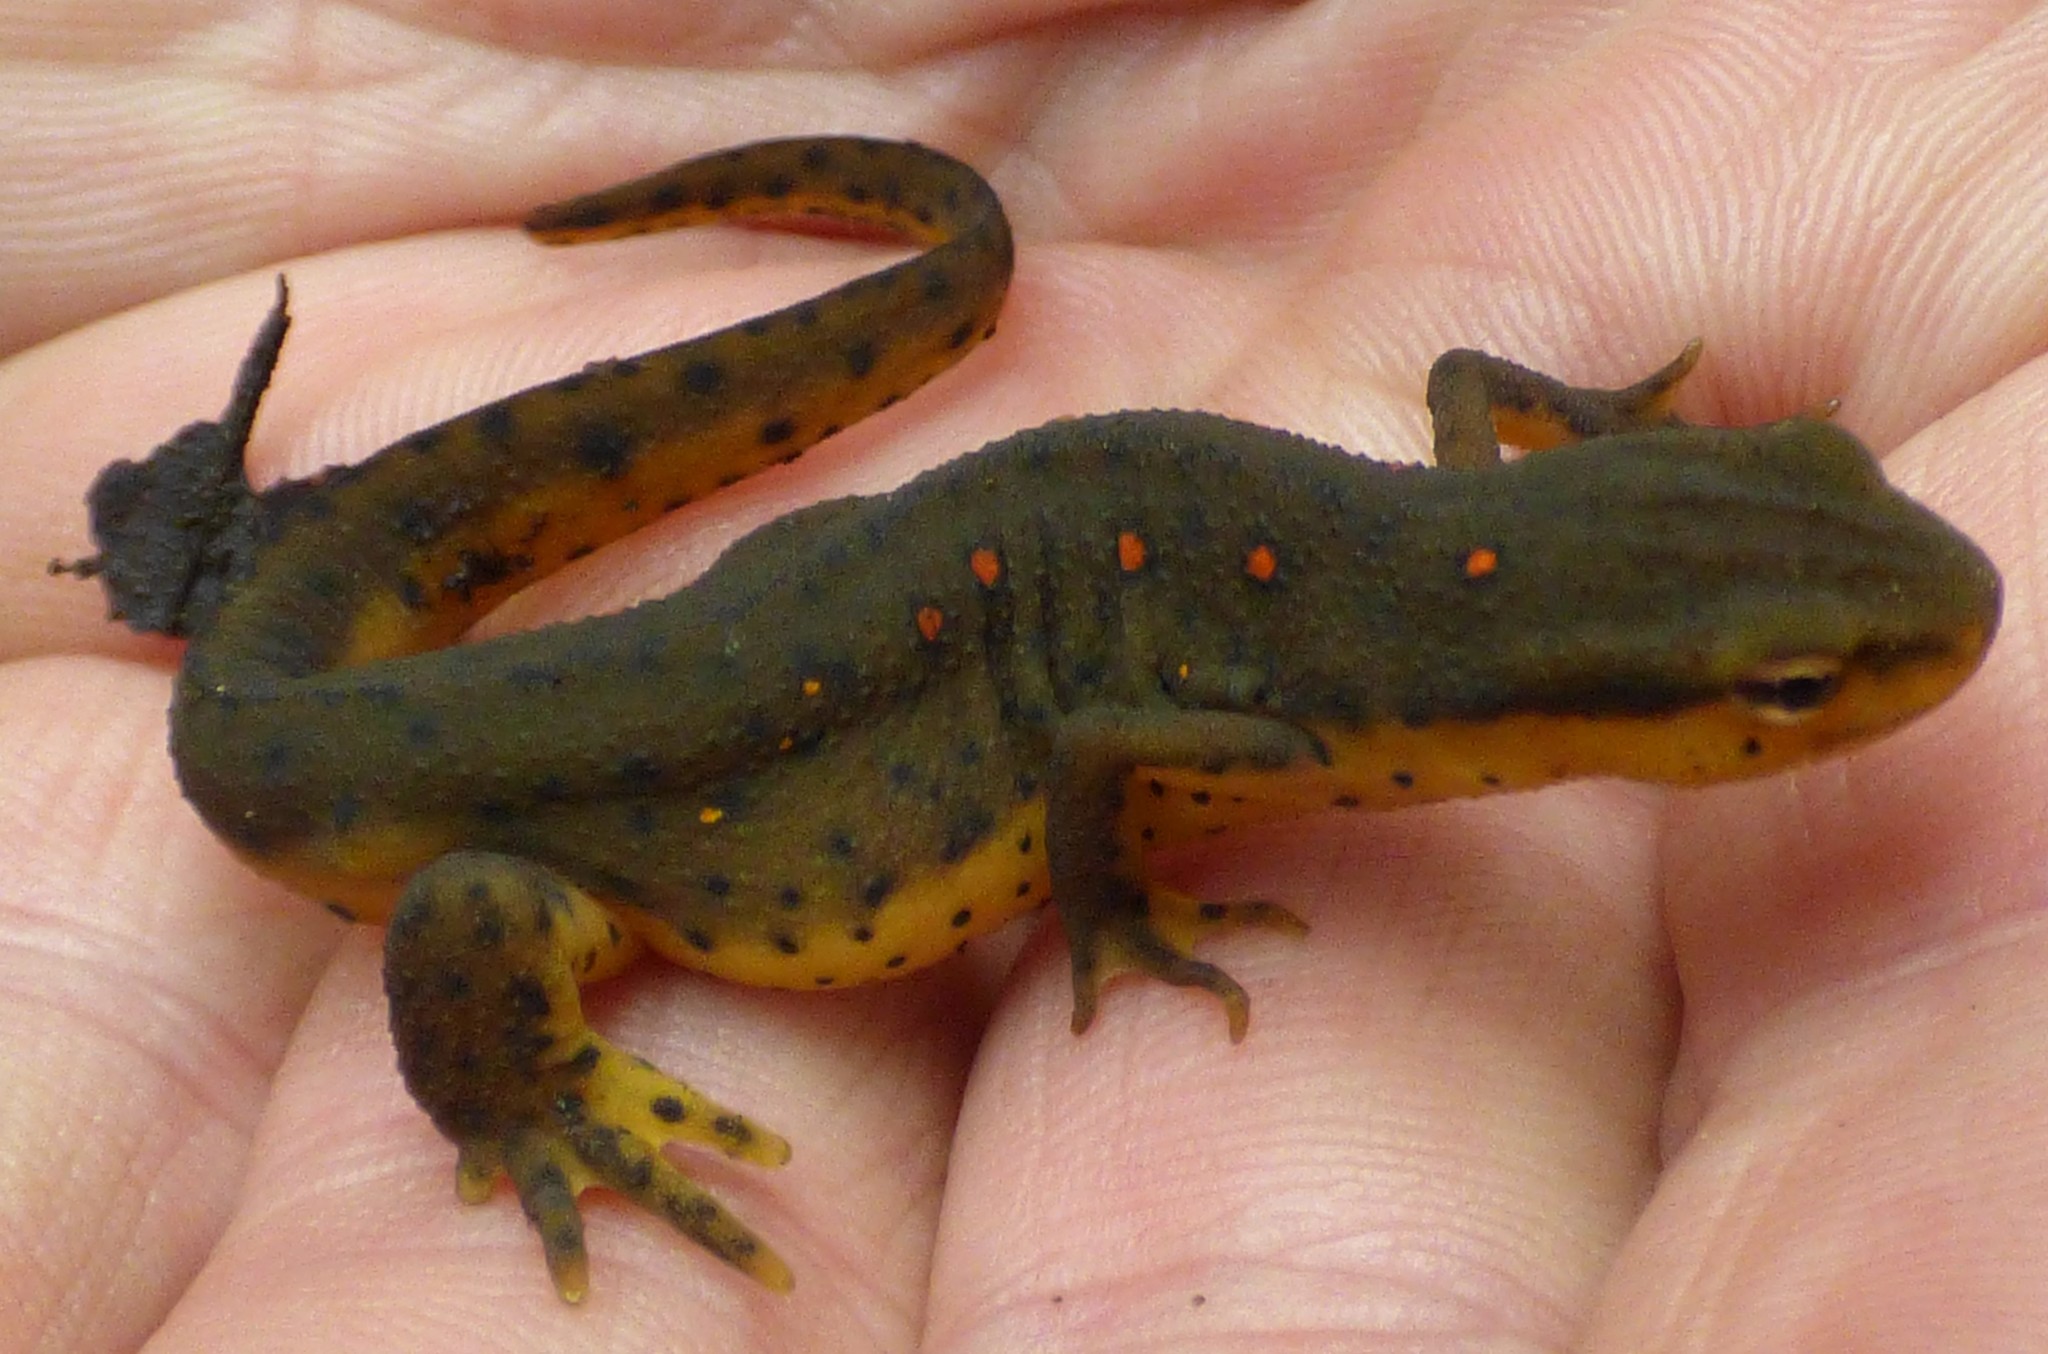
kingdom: Animalia
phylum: Chordata
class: Amphibia
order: Caudata
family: Salamandridae
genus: Notophthalmus
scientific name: Notophthalmus viridescens
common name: Eastern newt
